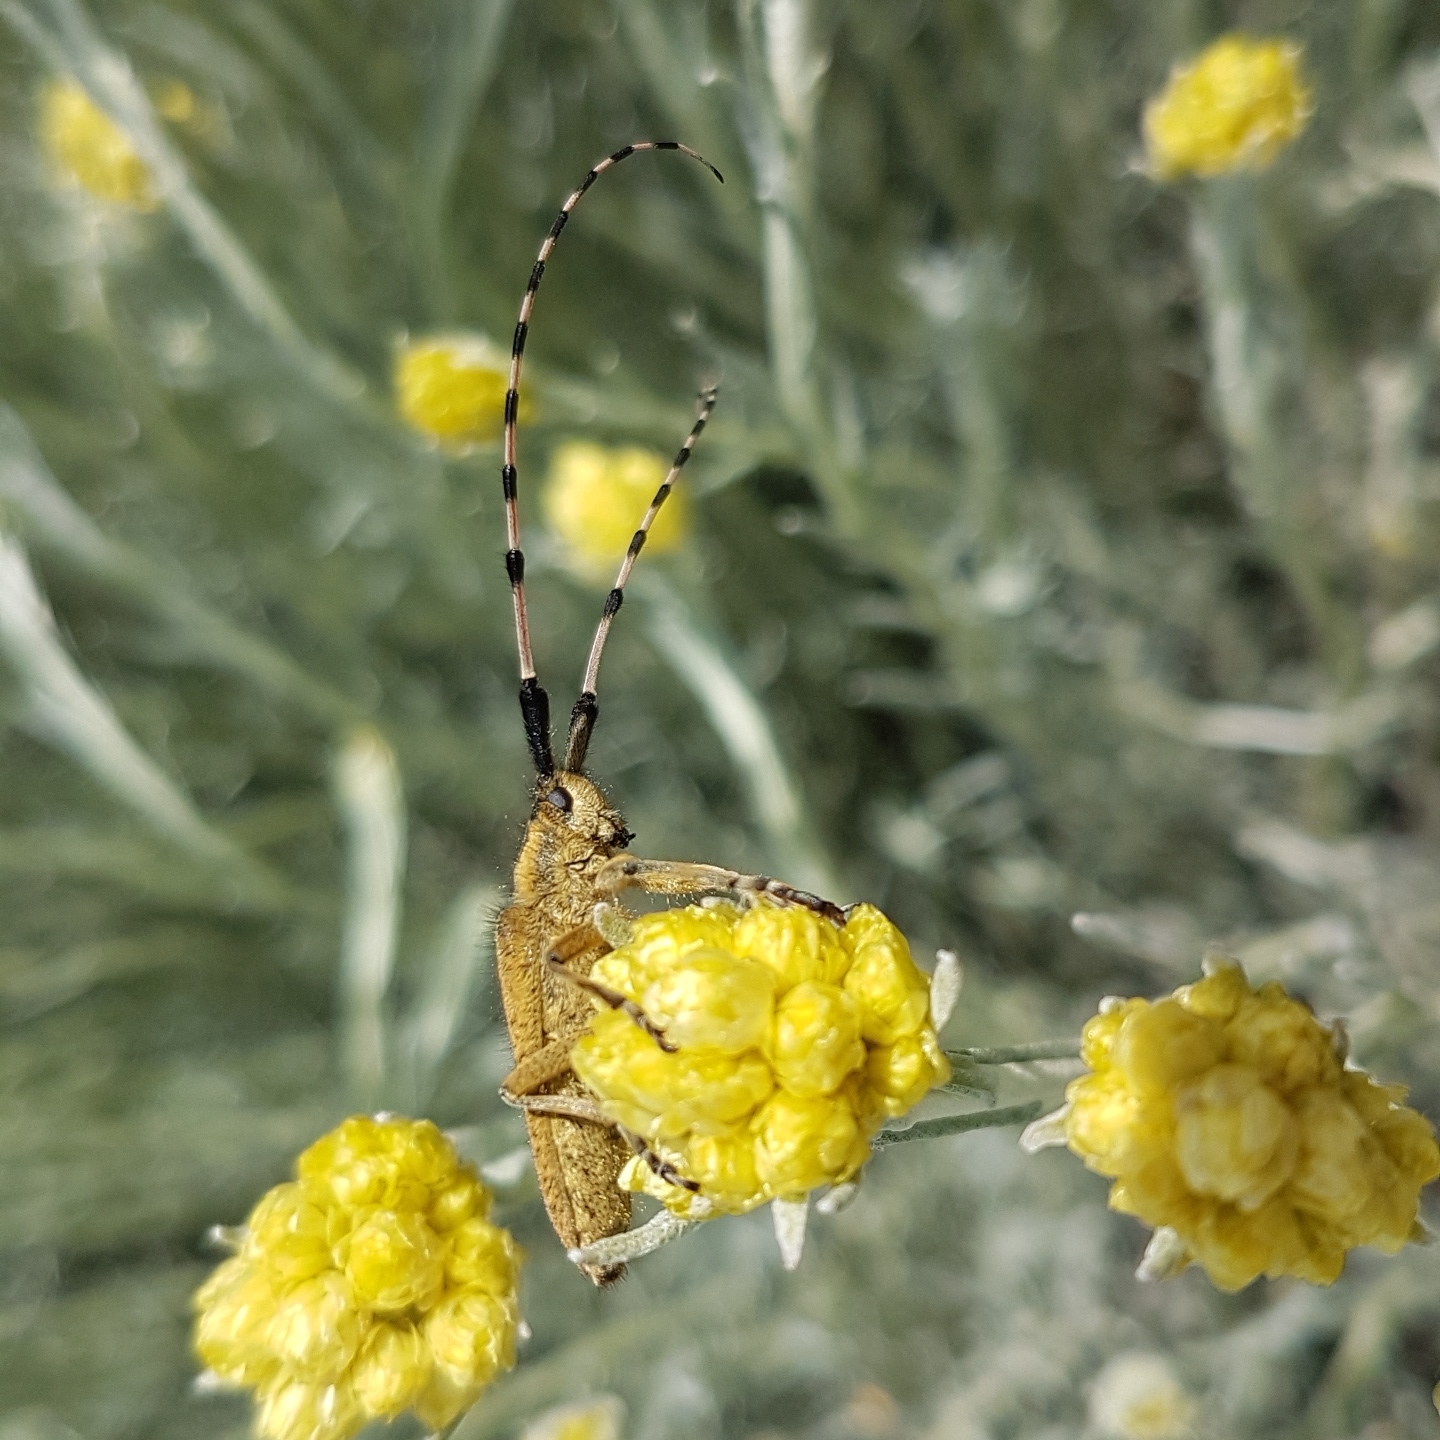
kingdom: Animalia
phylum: Arthropoda
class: Insecta
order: Coleoptera
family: Cerambycidae
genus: Agapanthia
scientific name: Agapanthia dahlii
